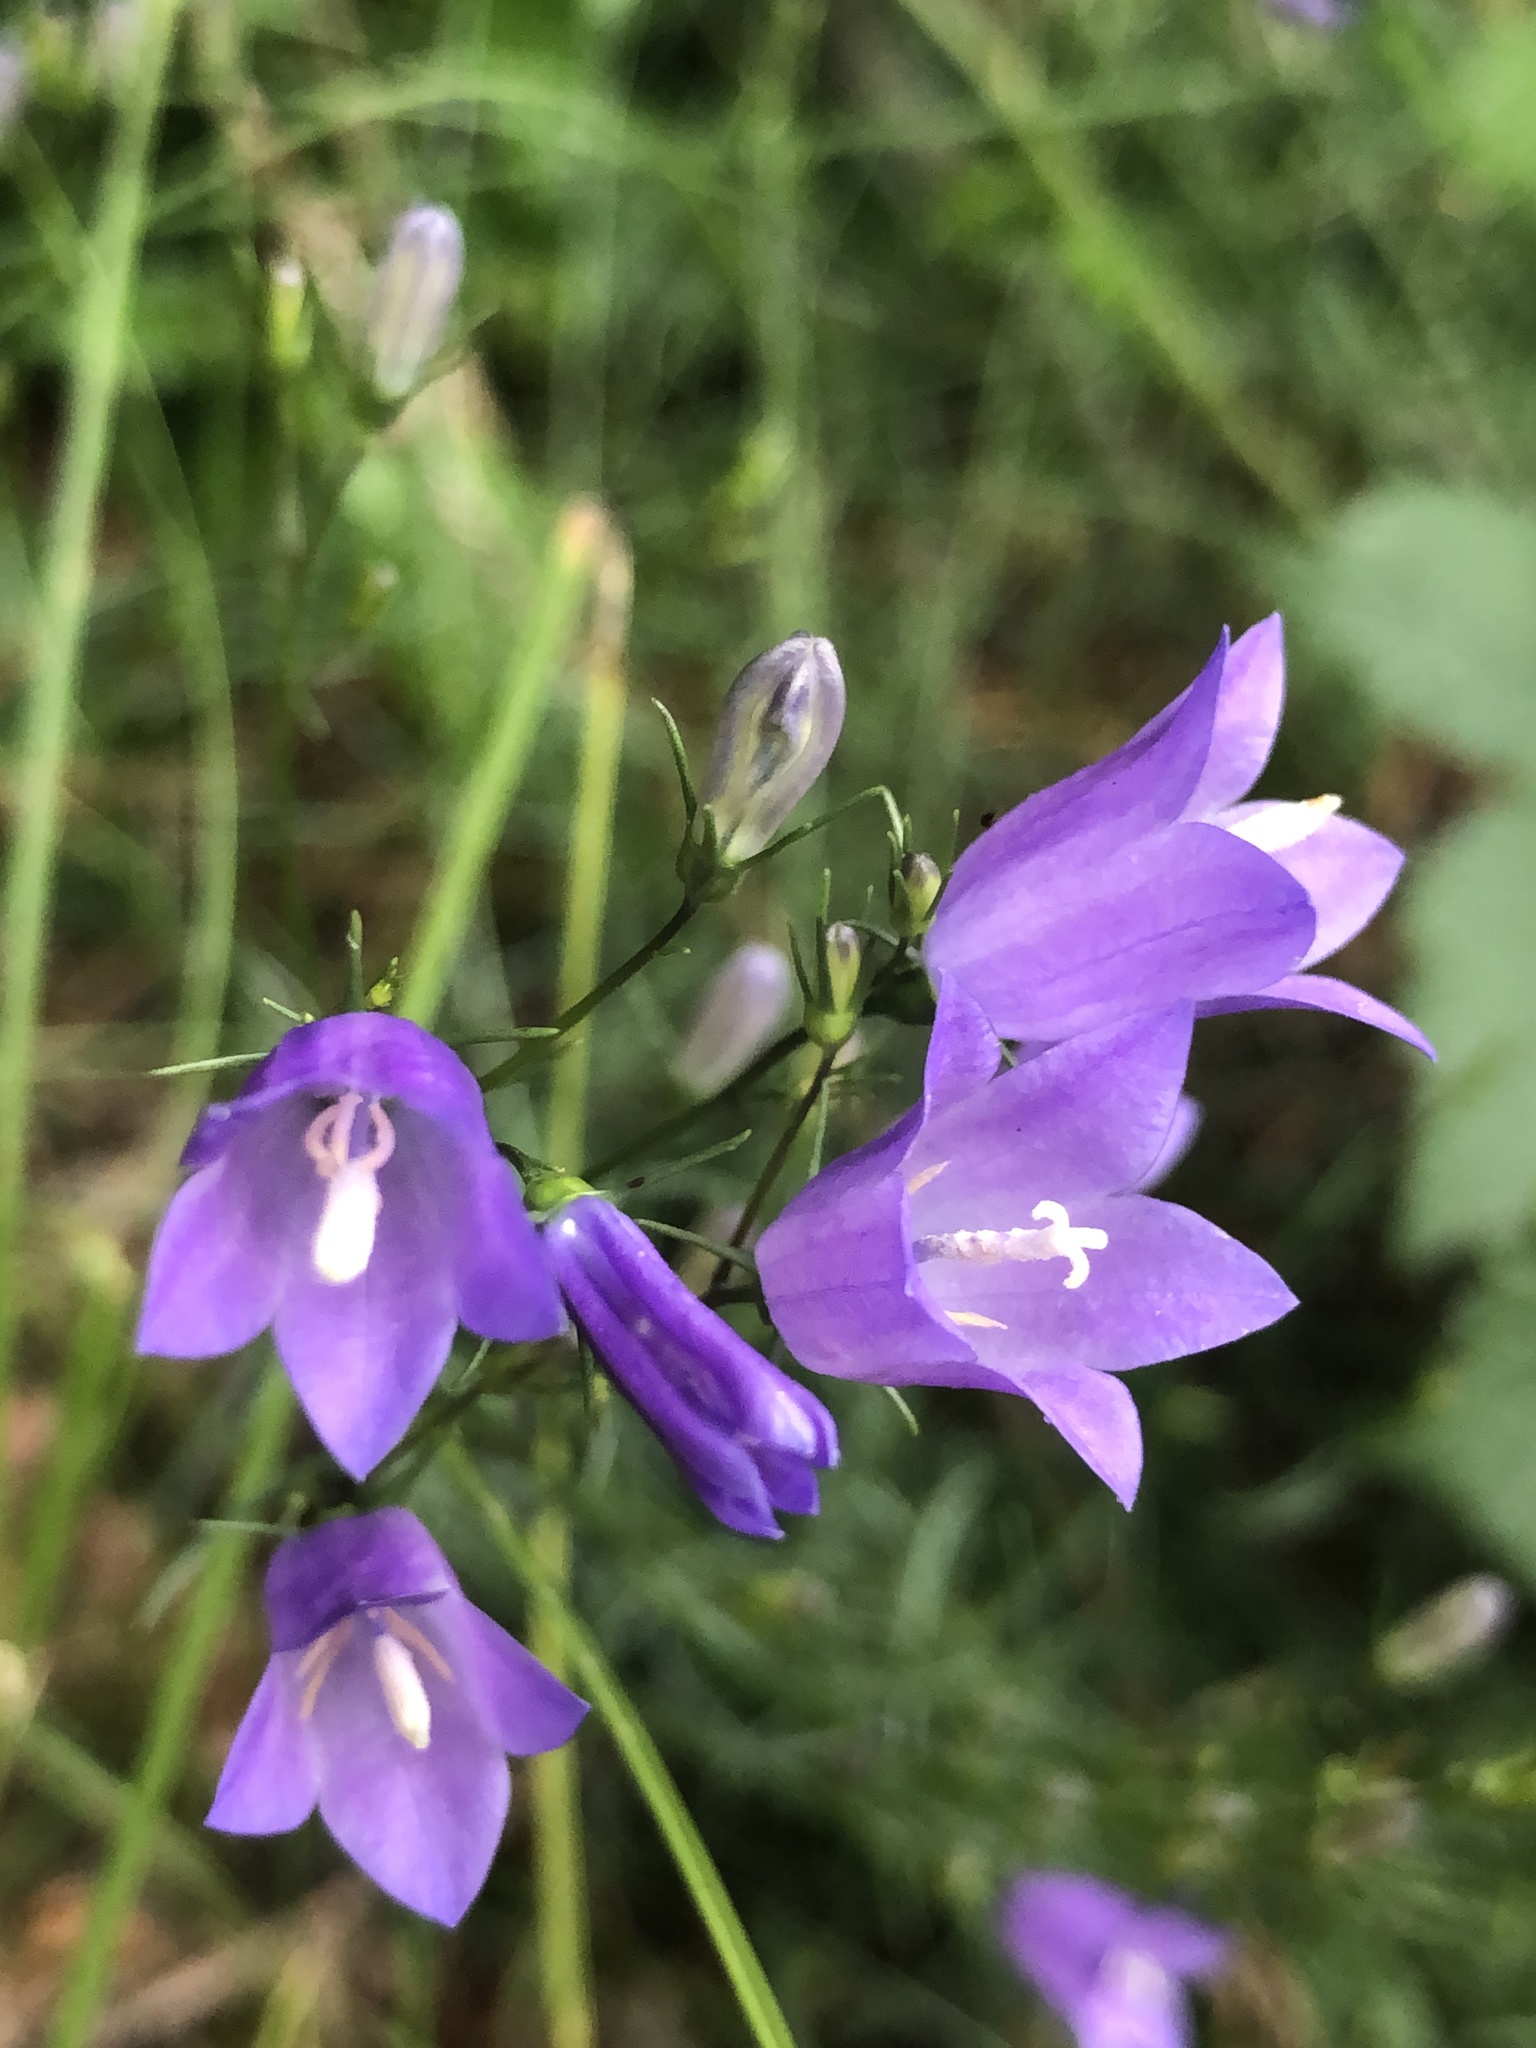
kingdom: Plantae
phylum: Tracheophyta
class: Magnoliopsida
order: Asterales
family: Campanulaceae
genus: Campanula
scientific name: Campanula rotundifolia
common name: Harebell
